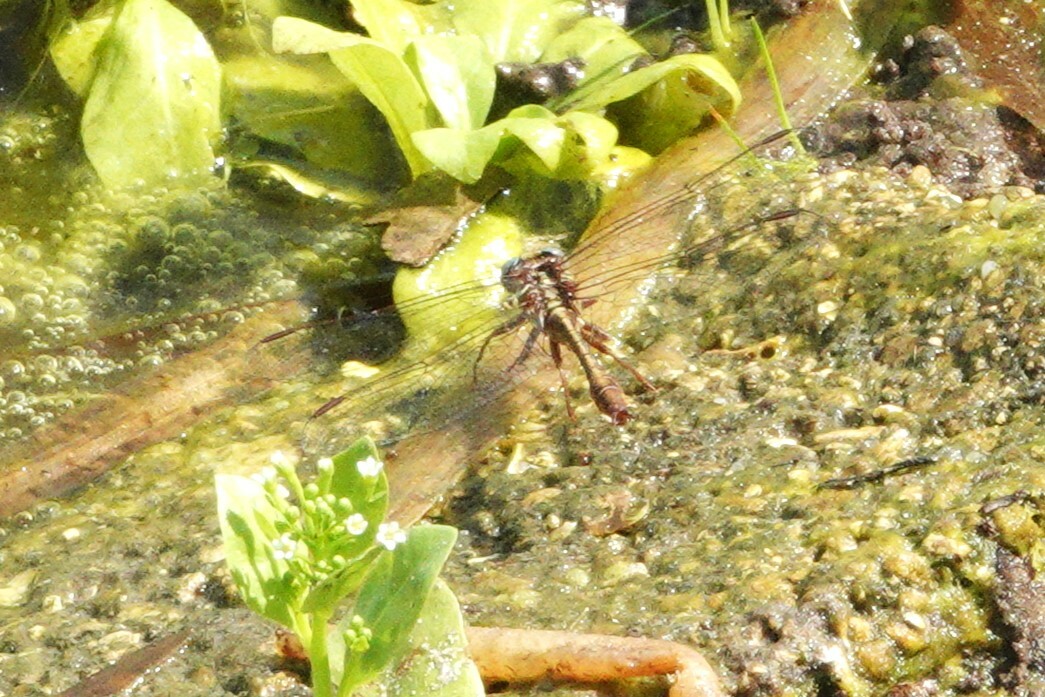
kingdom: Animalia
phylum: Arthropoda
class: Insecta
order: Odonata
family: Gomphidae
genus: Phanogomphus
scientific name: Phanogomphus minutus
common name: Cypress clubtail
